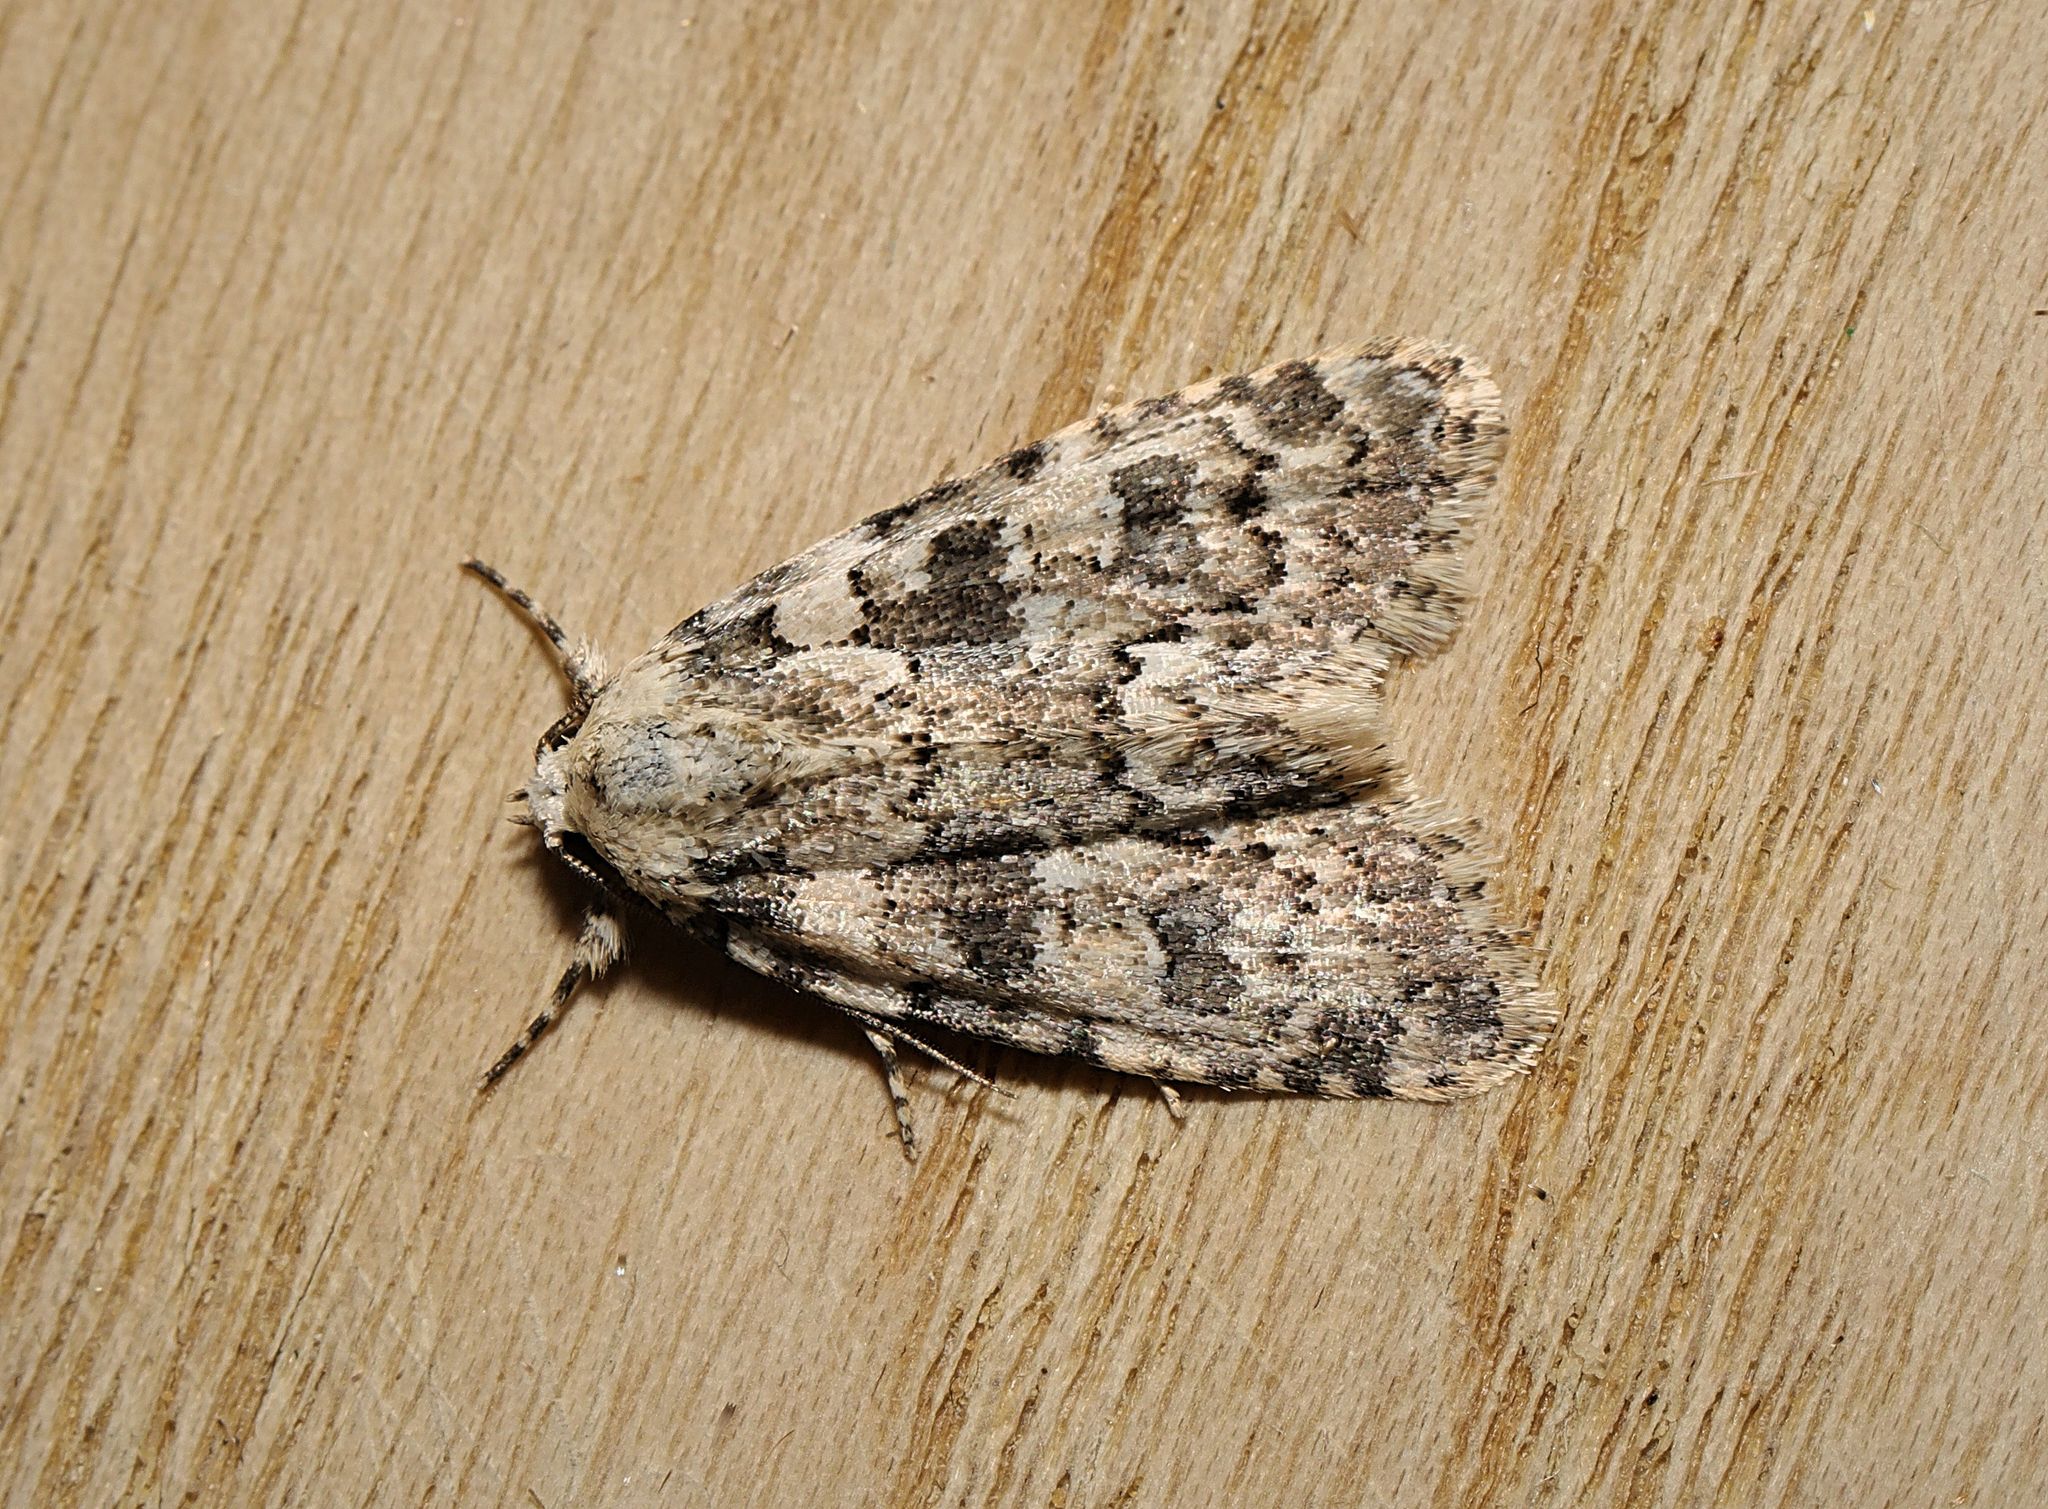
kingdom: Animalia
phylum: Arthropoda
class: Insecta
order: Lepidoptera
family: Noctuidae
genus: Bryophila
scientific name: Bryophila domestica
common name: Marbled beauty
